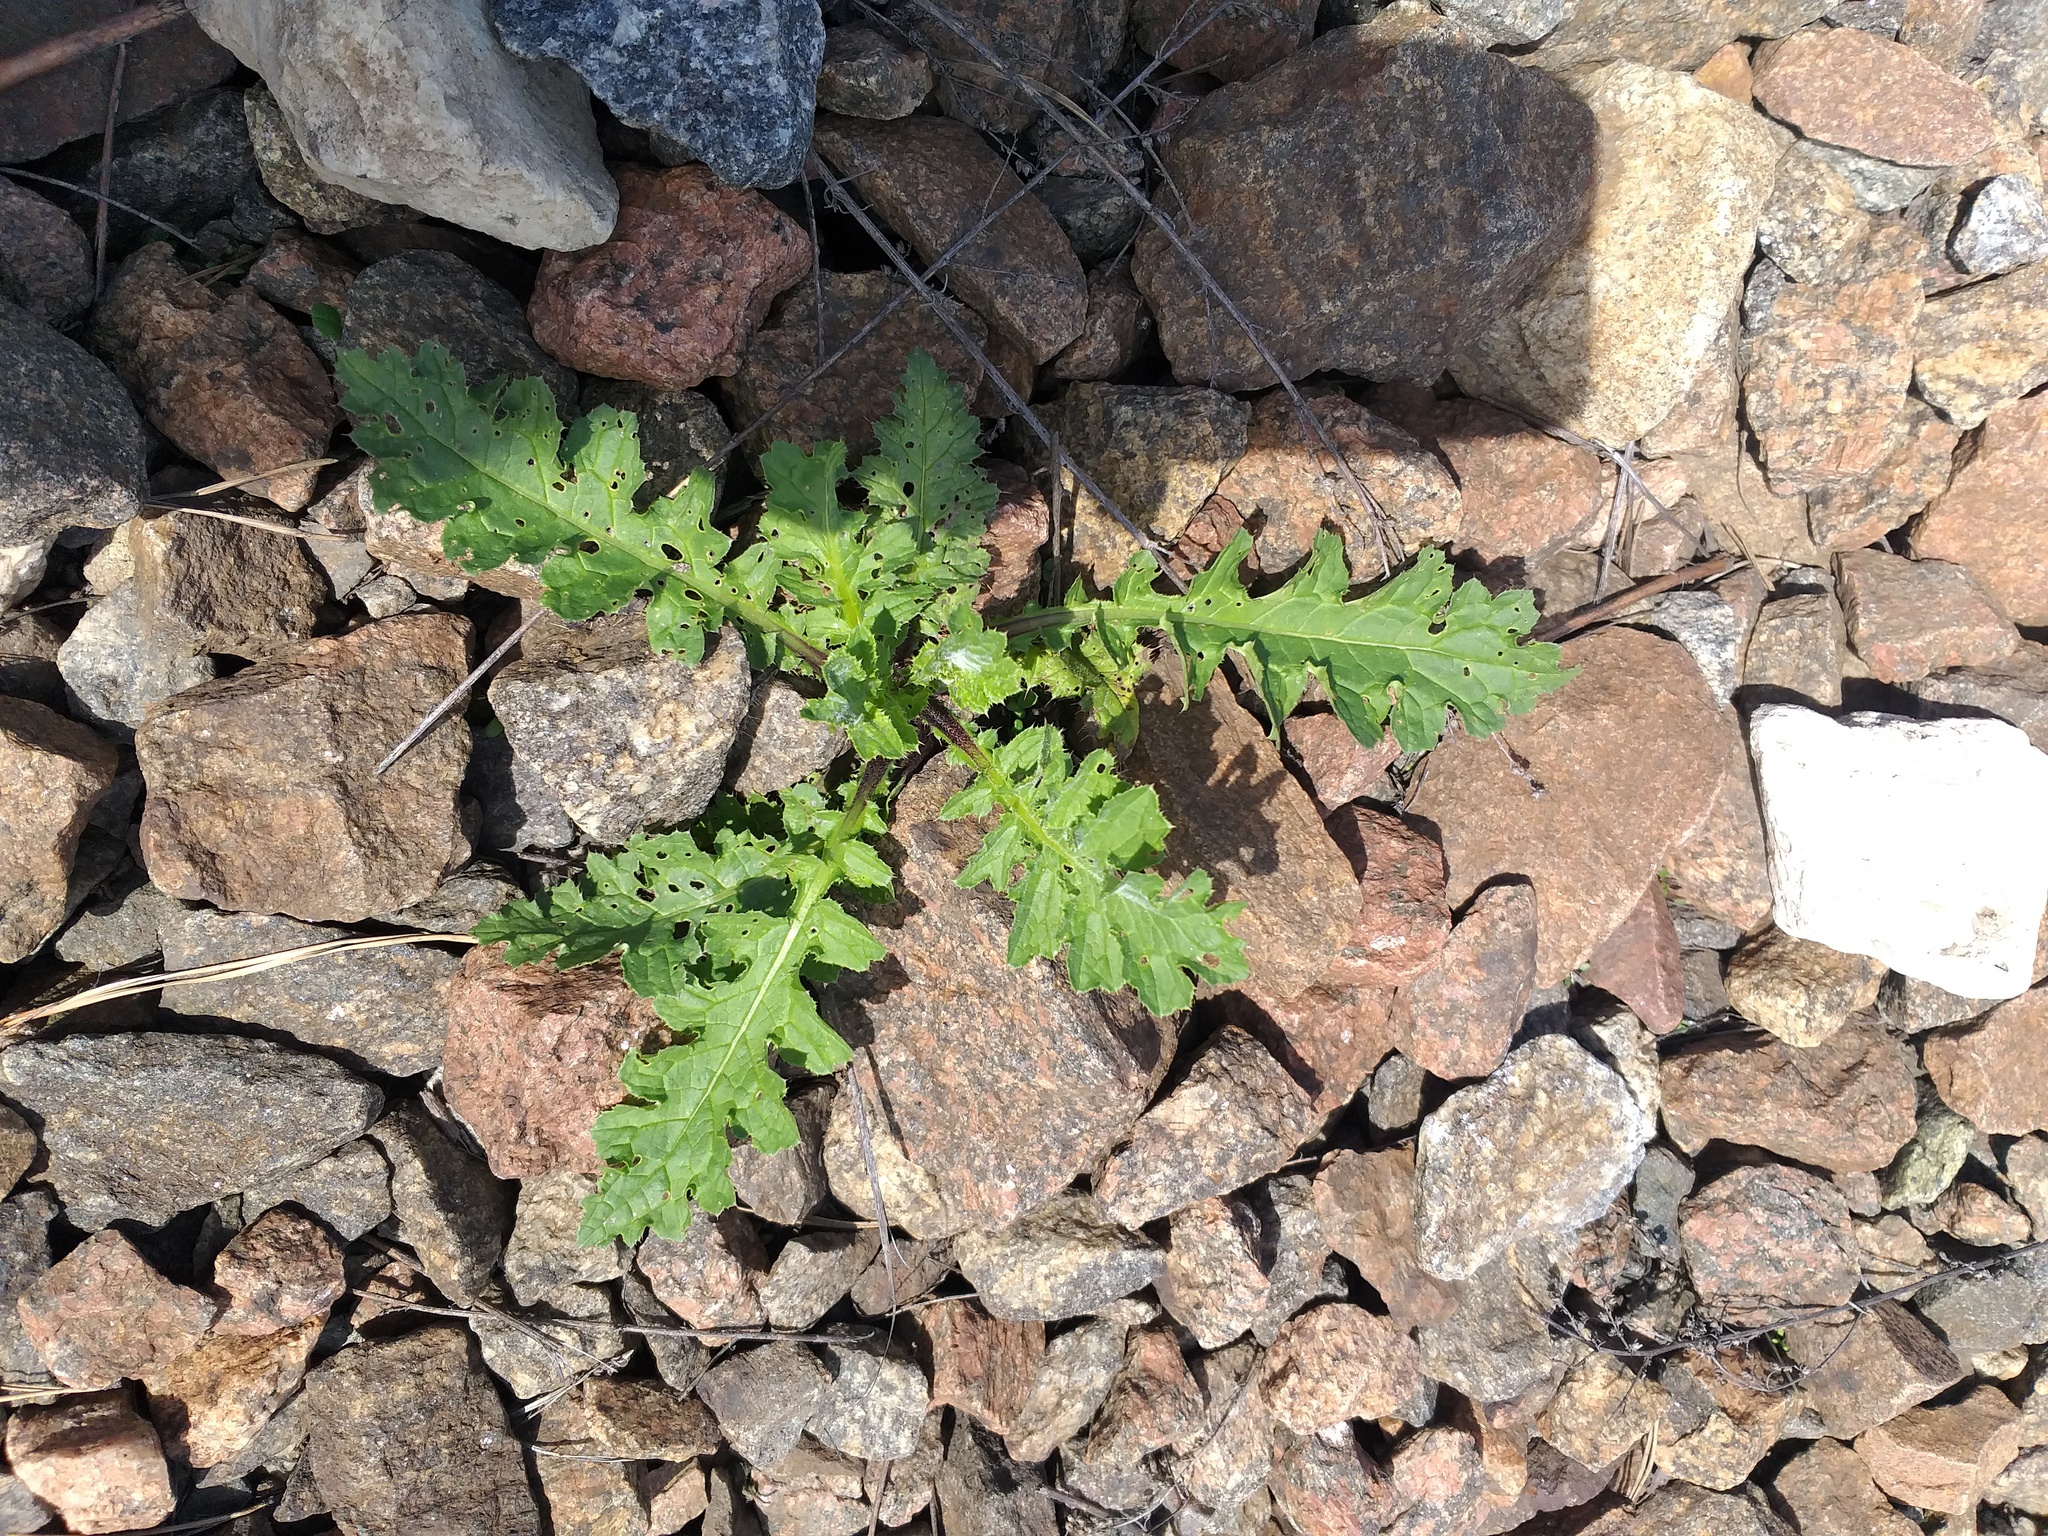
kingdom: Plantae
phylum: Tracheophyta
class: Magnoliopsida
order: Asterales
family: Asteraceae
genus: Carduus
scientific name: Carduus crispus
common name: Welted thistle
